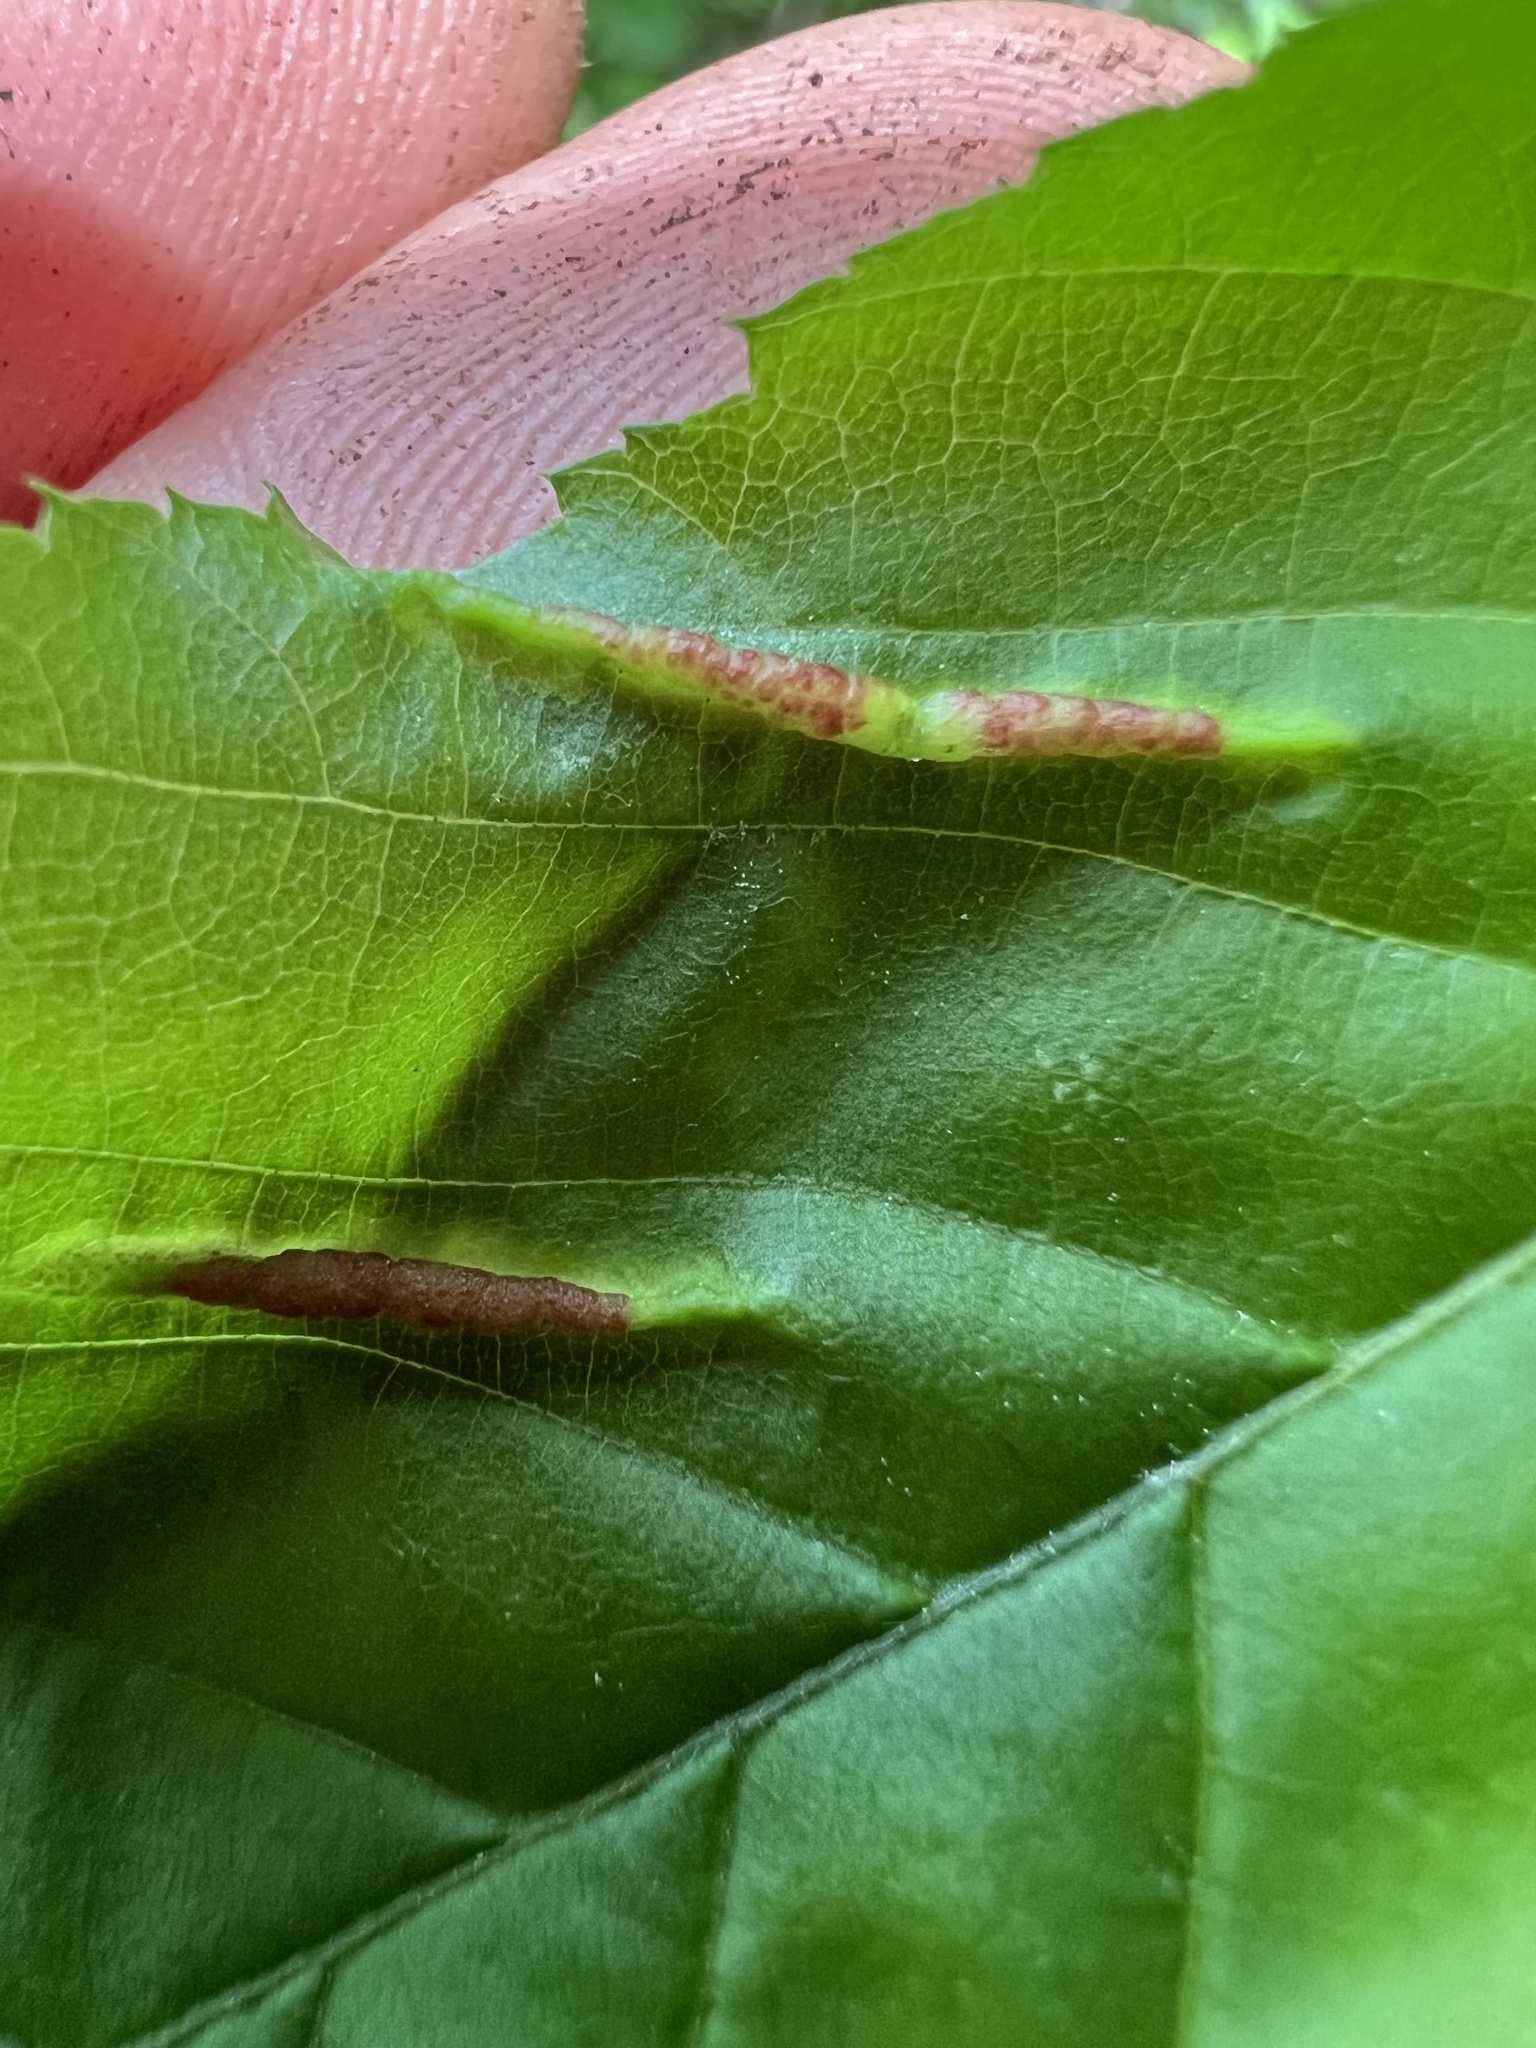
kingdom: Animalia
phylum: Arthropoda
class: Insecta
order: Diptera
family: Cecidomyiidae
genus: Dasineura
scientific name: Dasineura pudibunda
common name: Hornbeam leaf gall midge
